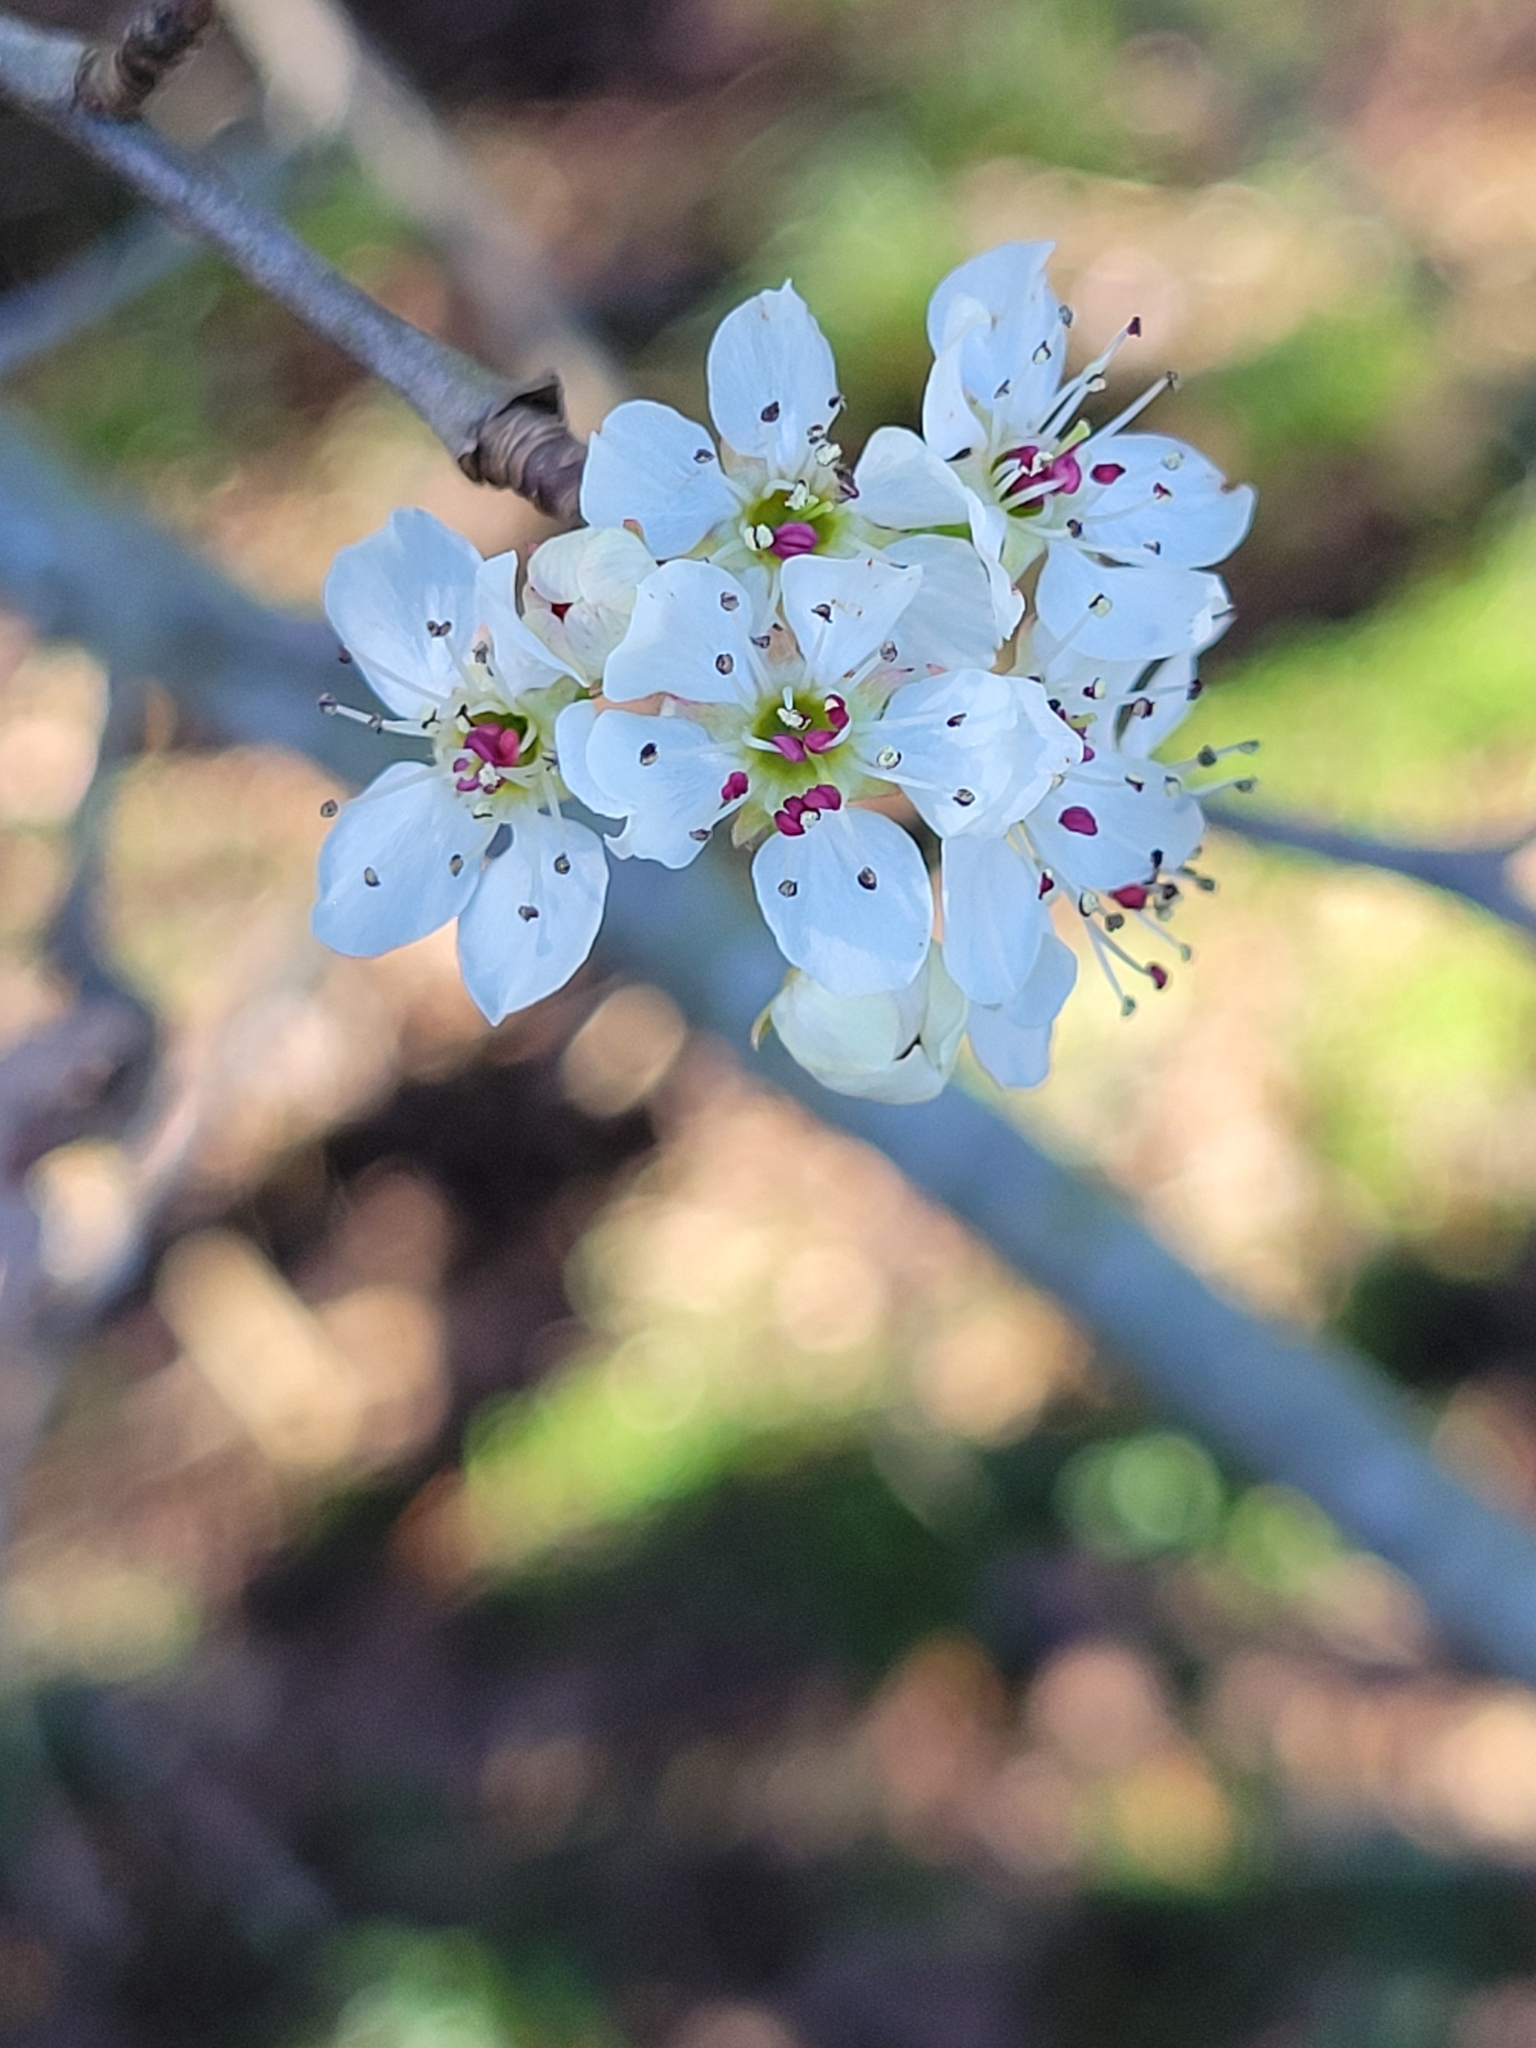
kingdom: Plantae
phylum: Tracheophyta
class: Magnoliopsida
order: Rosales
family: Rosaceae
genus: Pyrus
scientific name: Pyrus calleryana
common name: Callery pear
